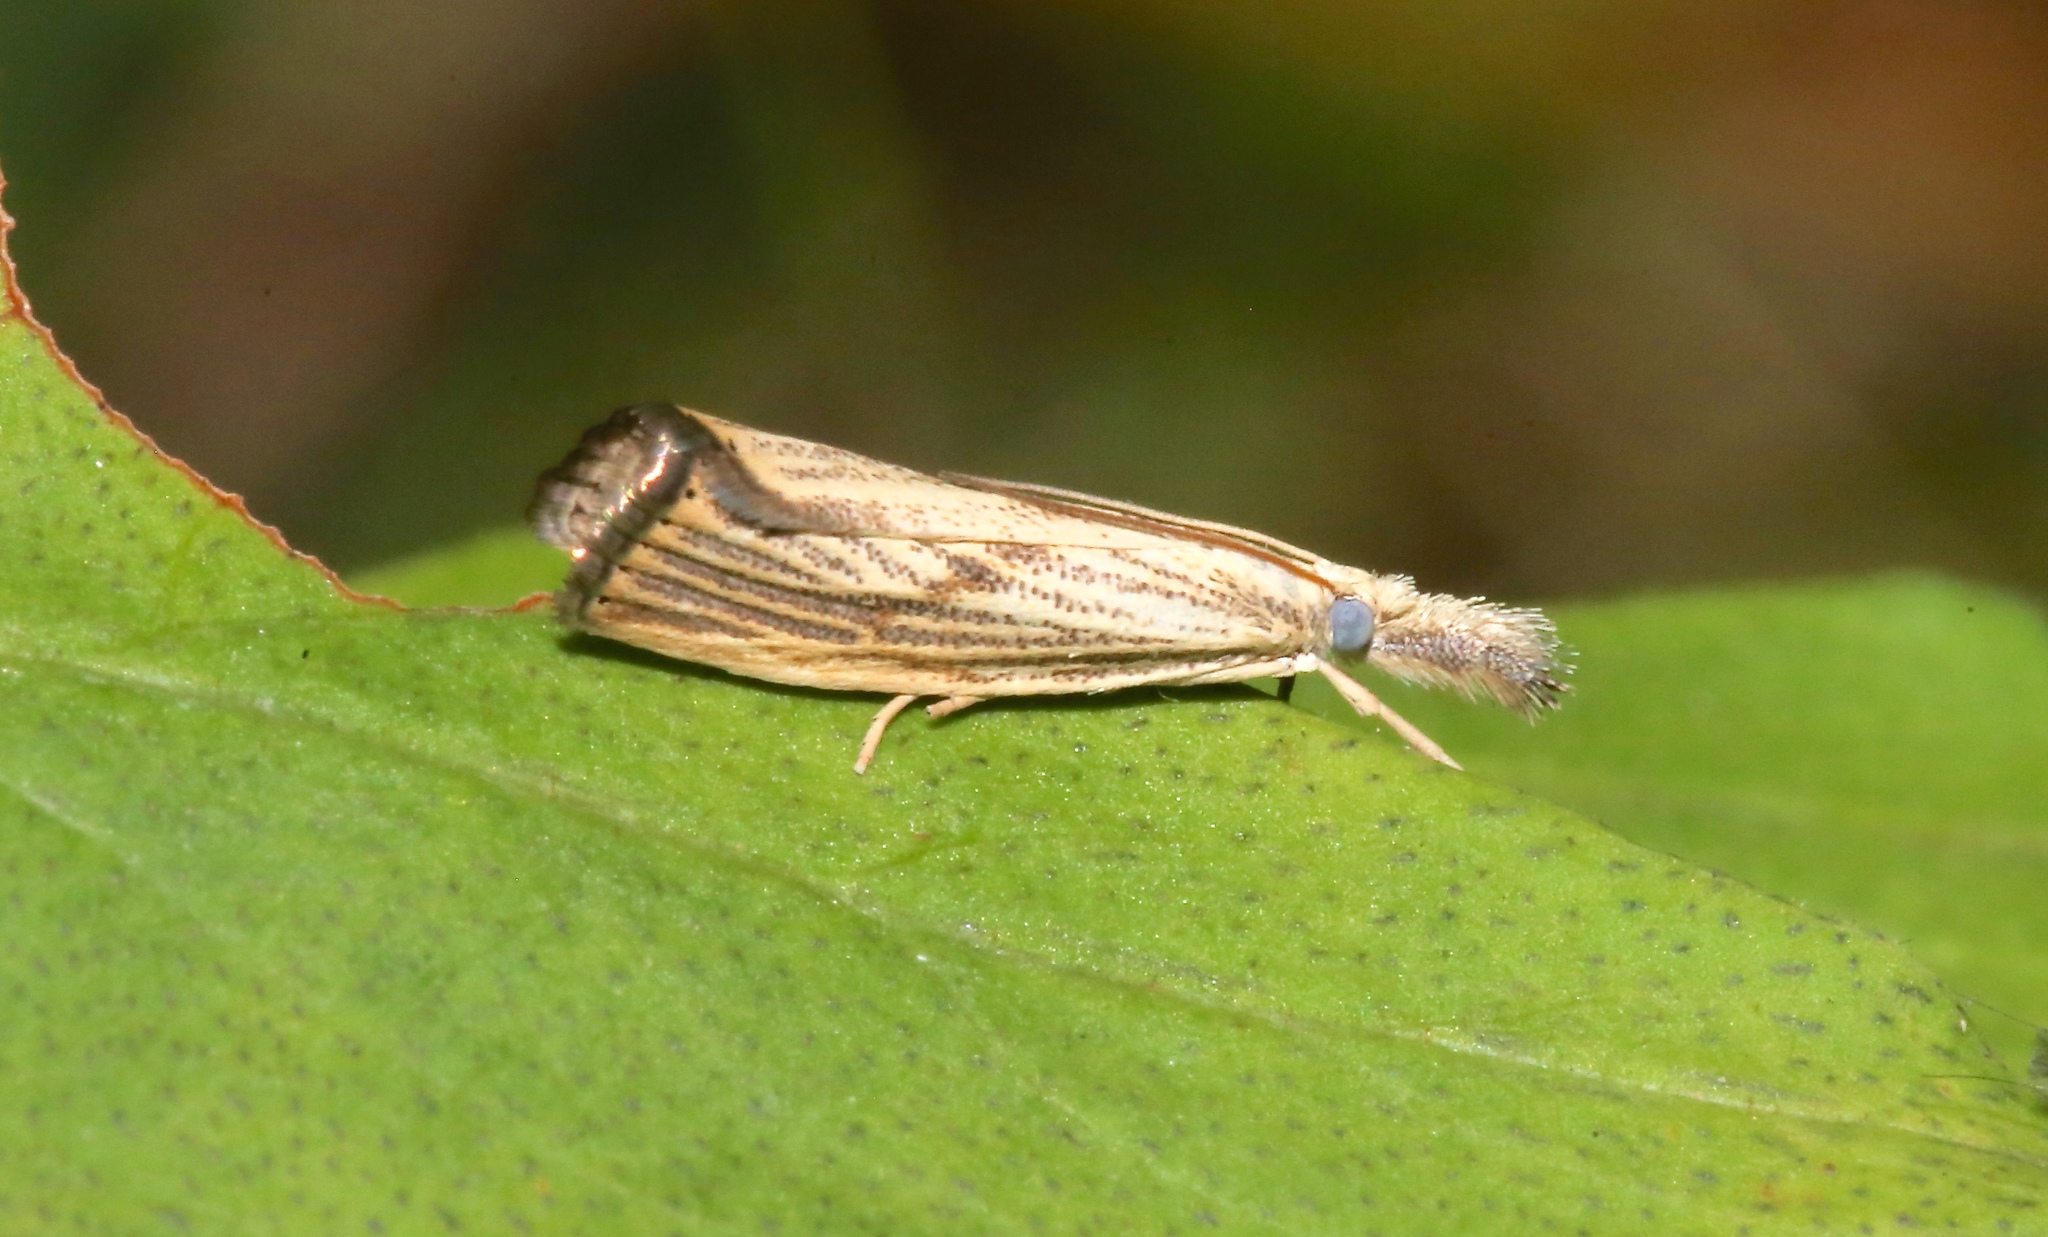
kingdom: Animalia
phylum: Arthropoda
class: Insecta
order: Lepidoptera
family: Crambidae
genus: Agriphila
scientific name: Agriphila ruricolellus
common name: Lesser vagabond sod webworm
